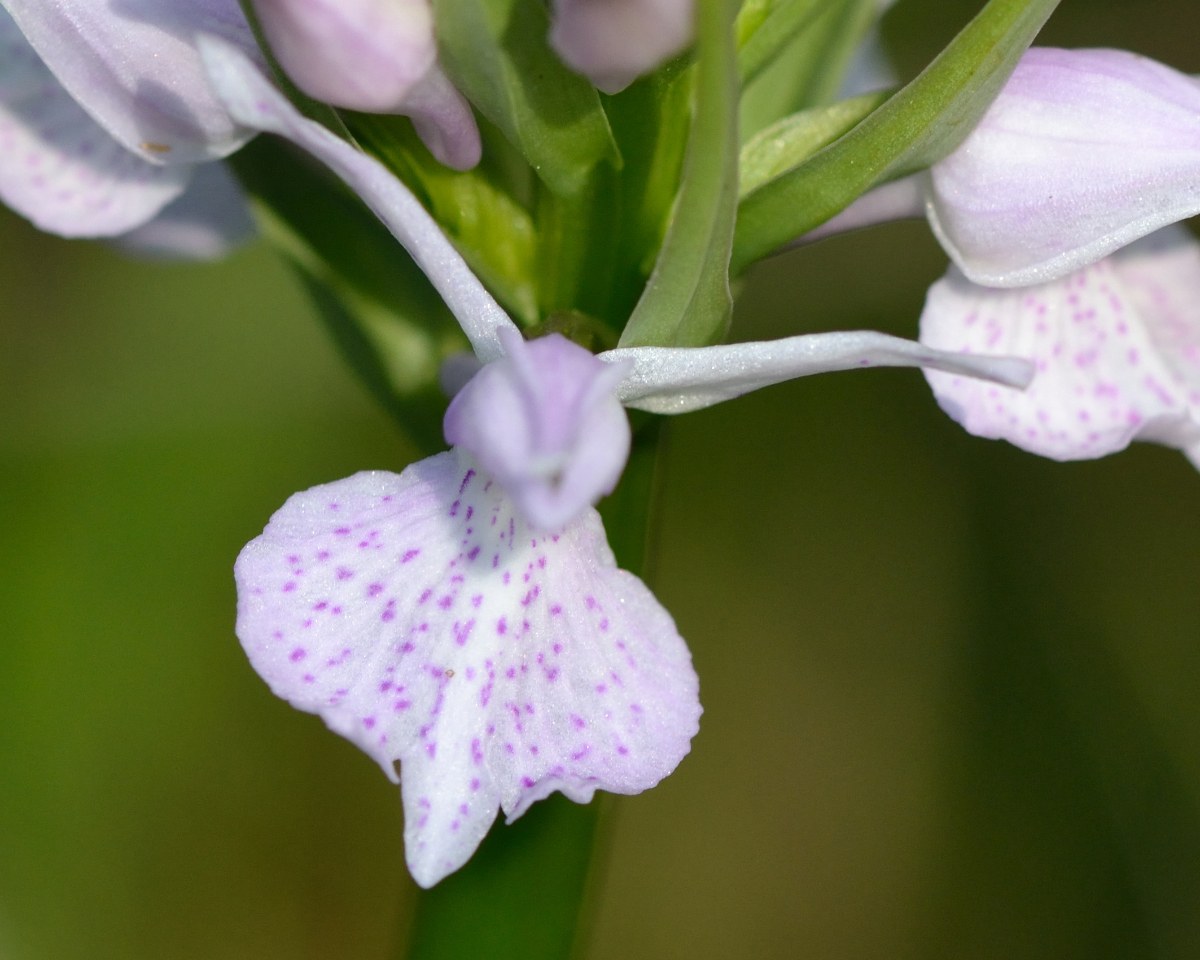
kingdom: Plantae
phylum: Tracheophyta
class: Liliopsida
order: Asparagales
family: Orchidaceae
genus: Dactylorhiza
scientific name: Dactylorhiza maculata
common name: Heath spotted-orchid
